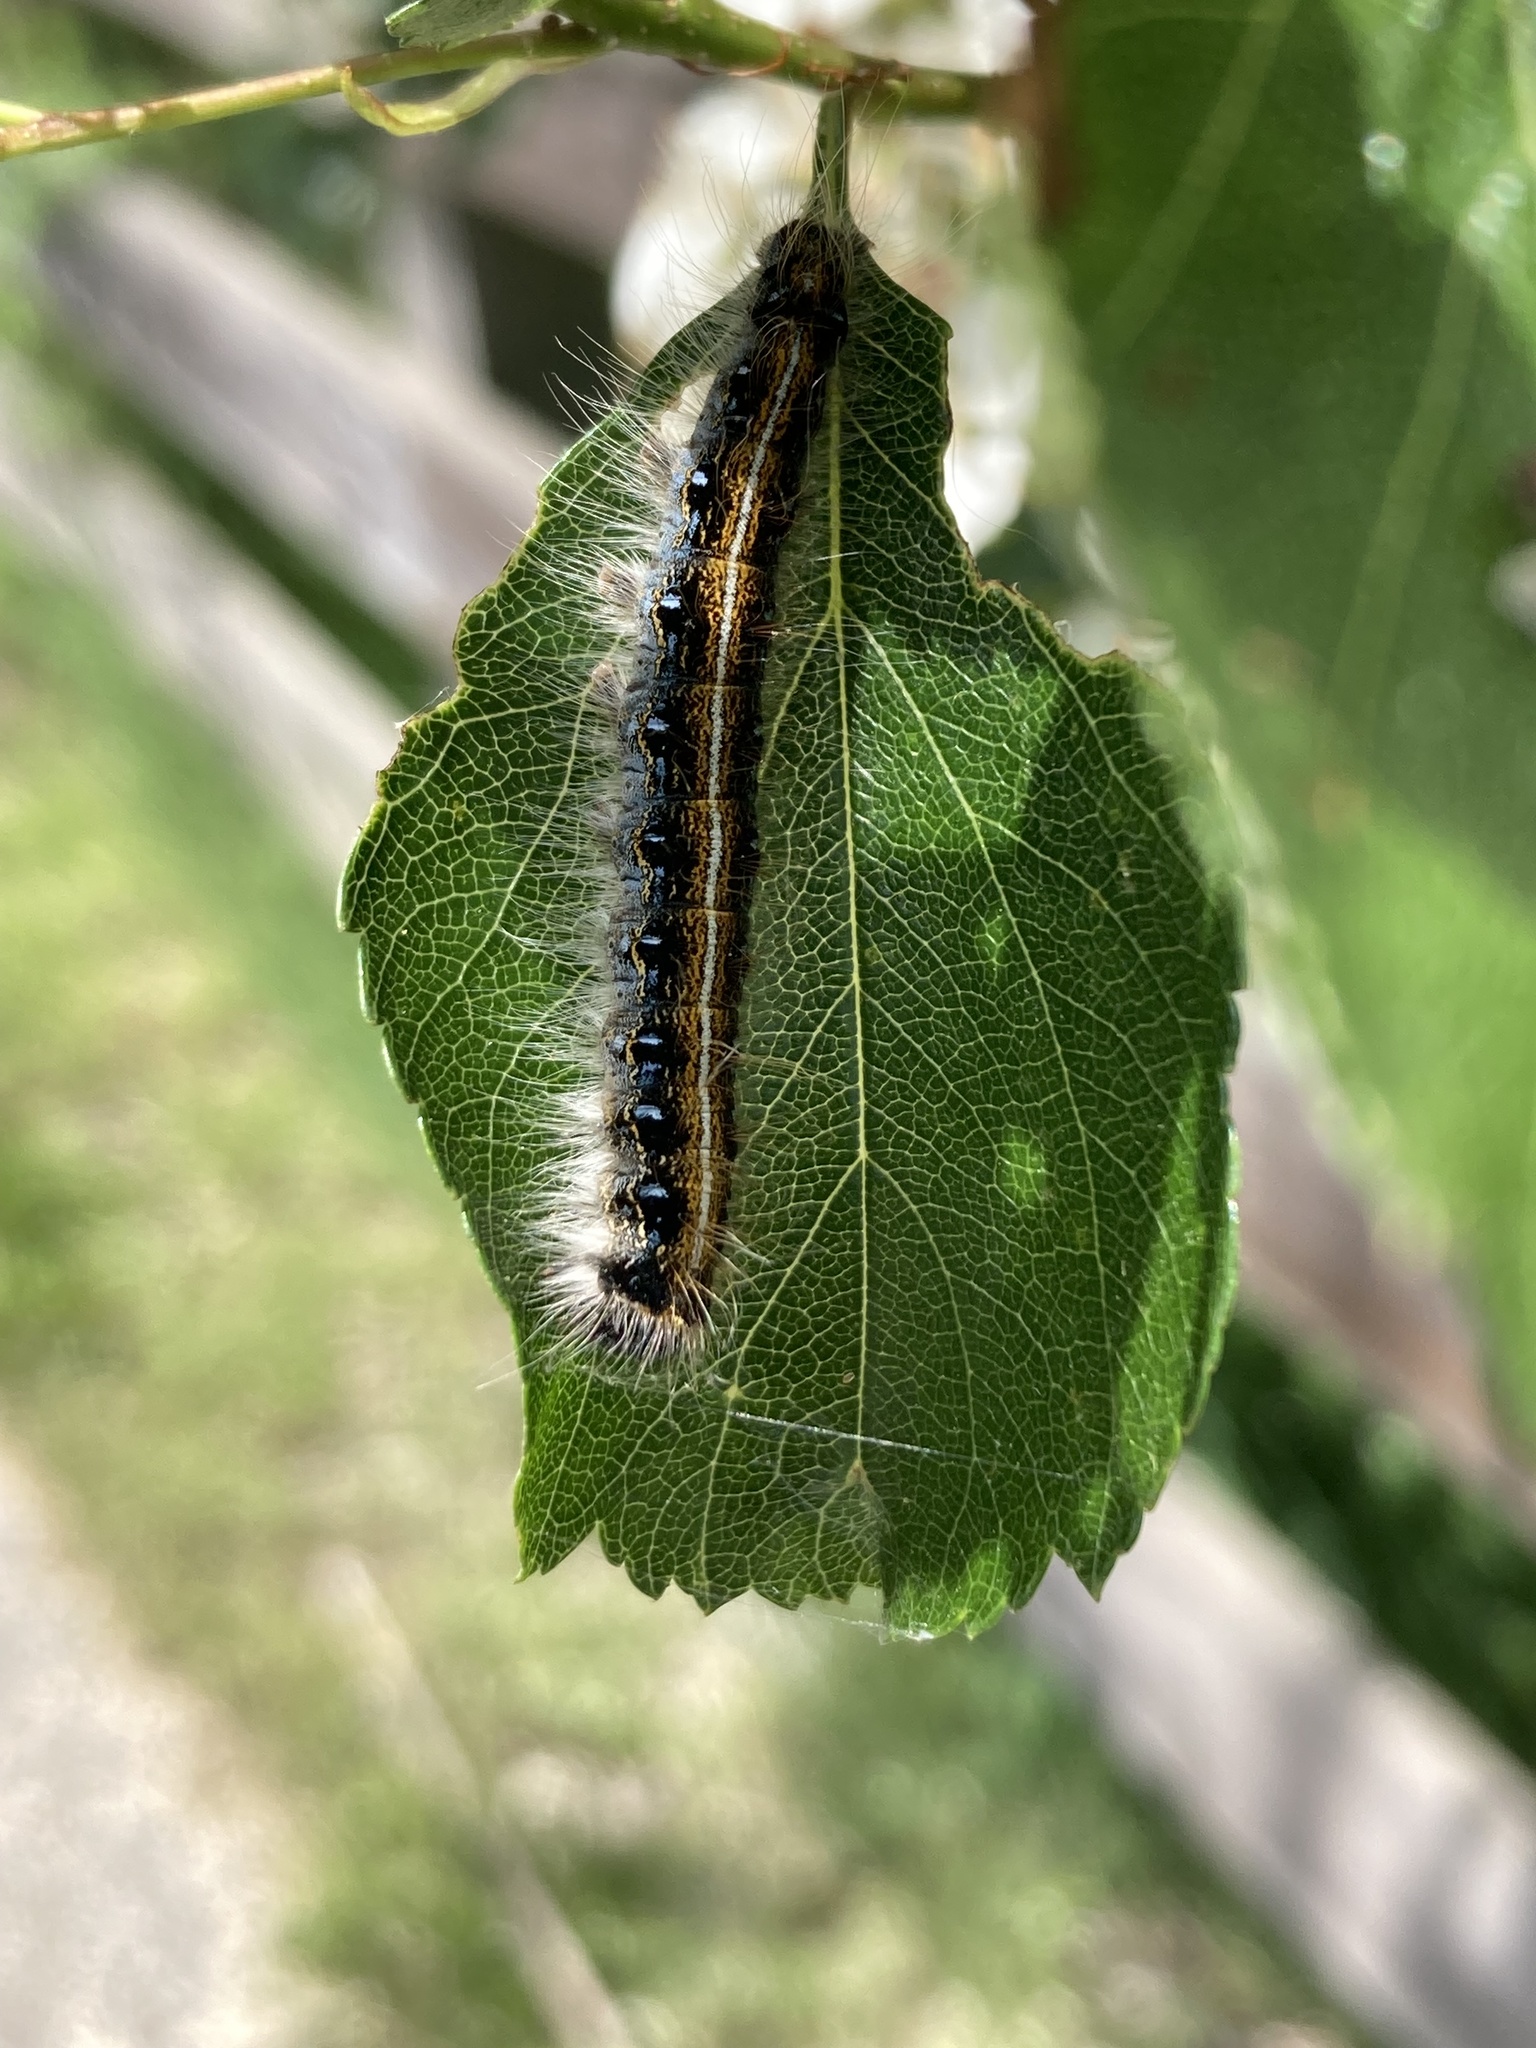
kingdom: Animalia
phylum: Arthropoda
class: Insecta
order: Lepidoptera
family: Lasiocampidae
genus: Malacosoma
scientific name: Malacosoma americana
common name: Eastern tent caterpillar moth
